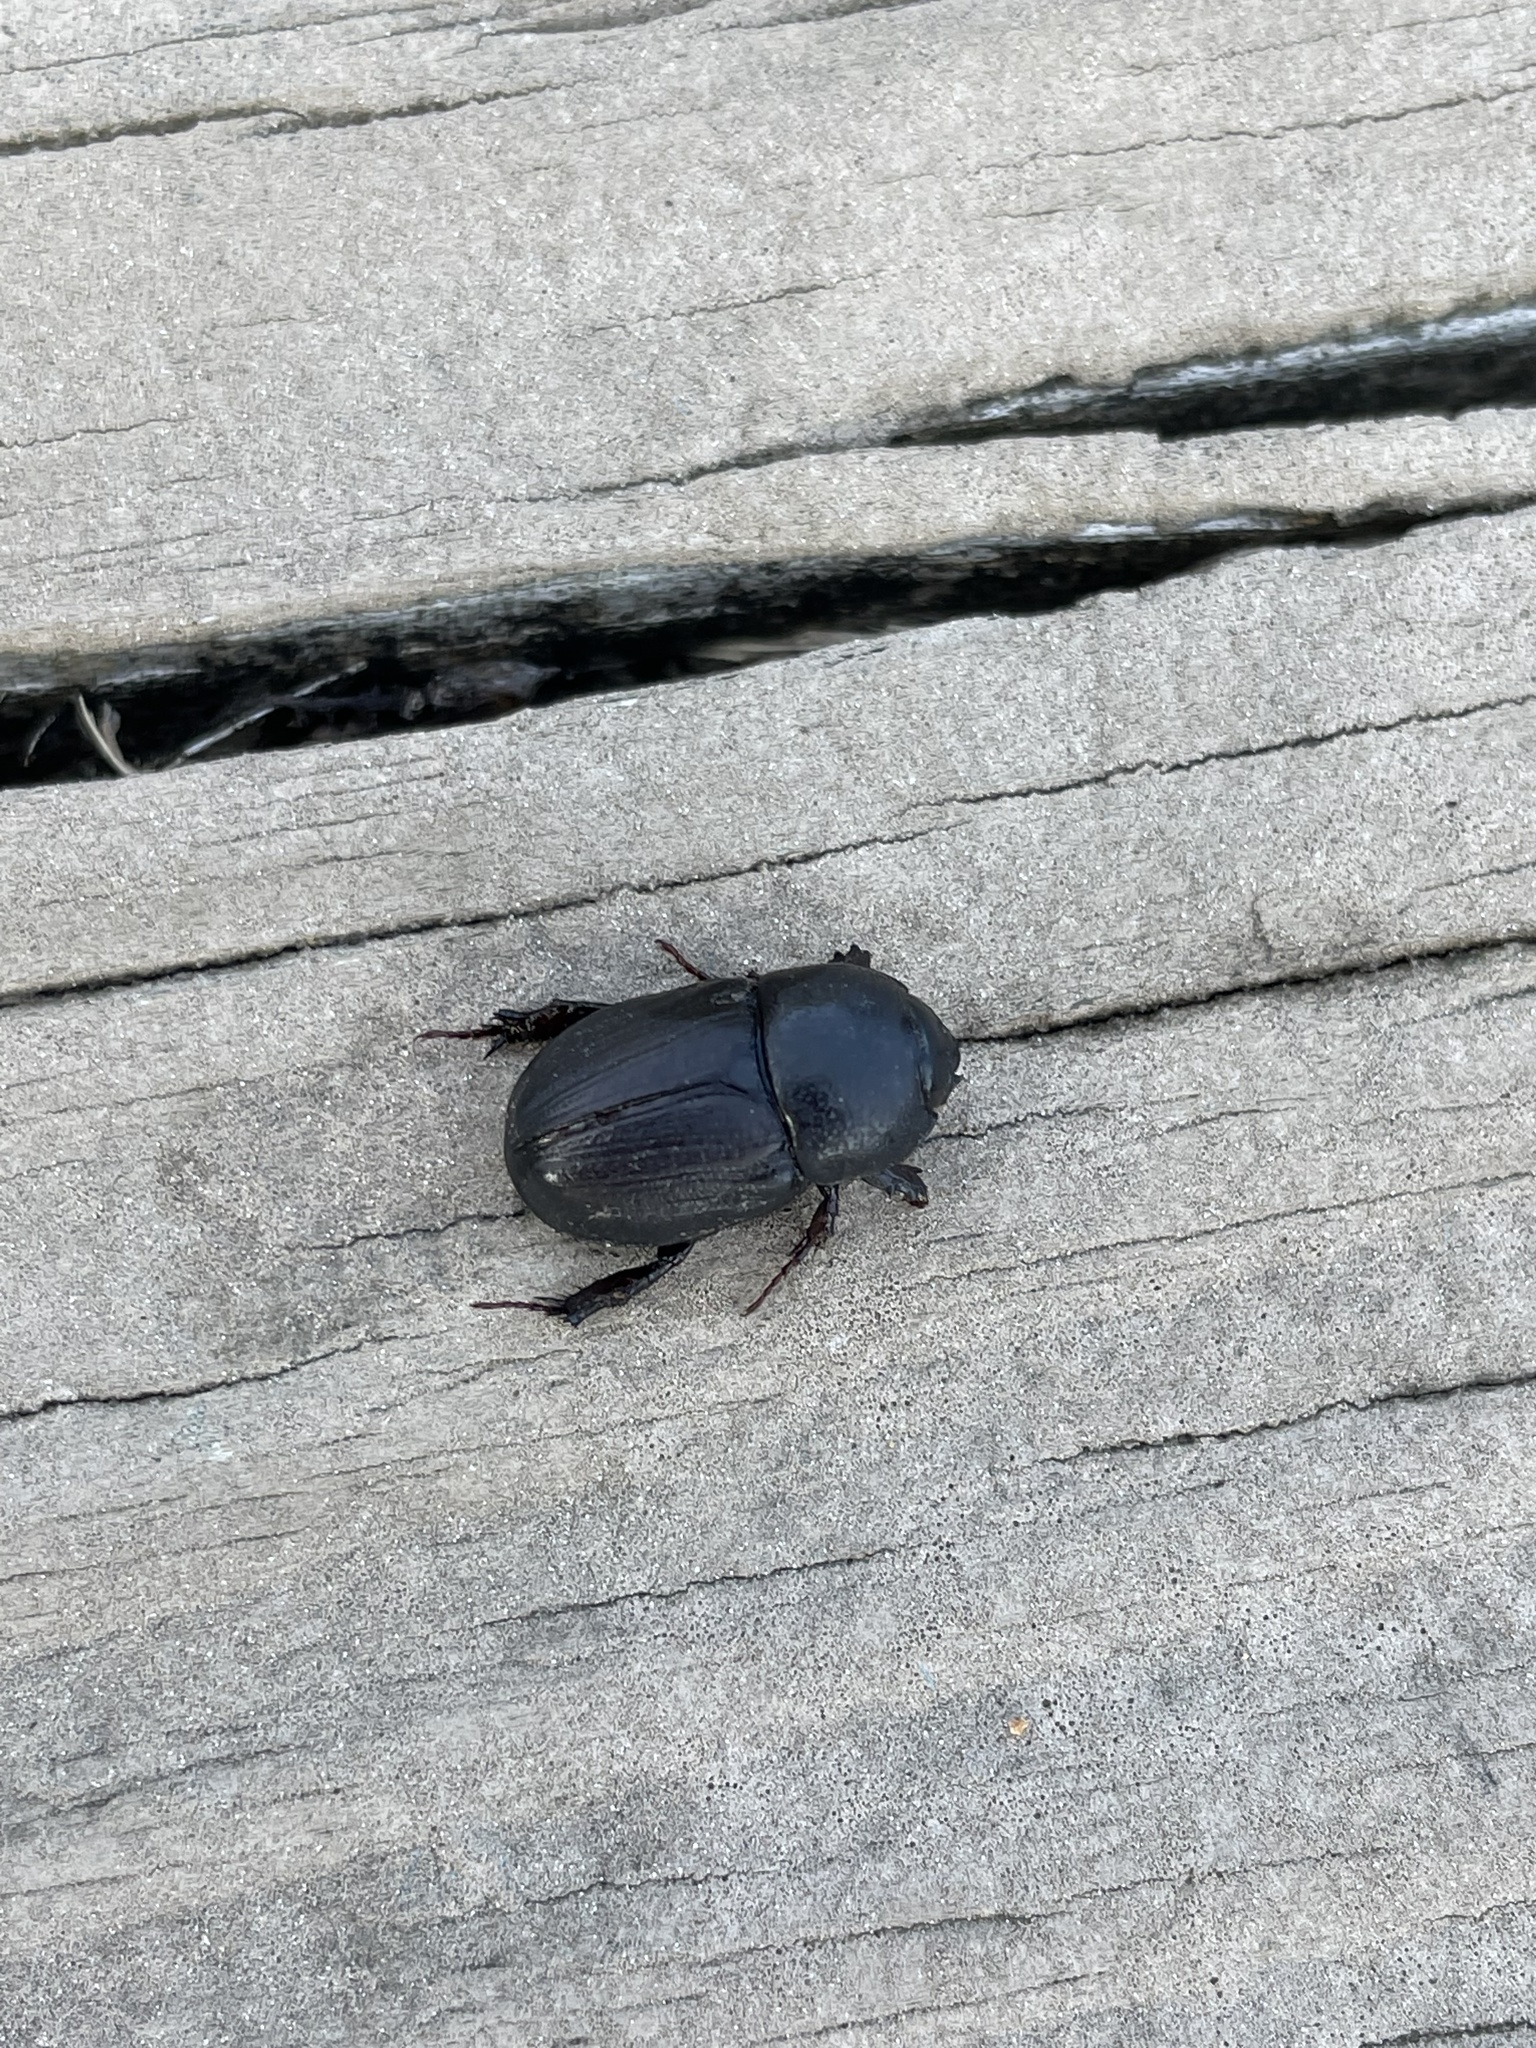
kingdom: Animalia
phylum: Arthropoda
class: Insecta
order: Coleoptera
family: Scarabaeidae
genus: Euetheola
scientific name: Euetheola humilis
